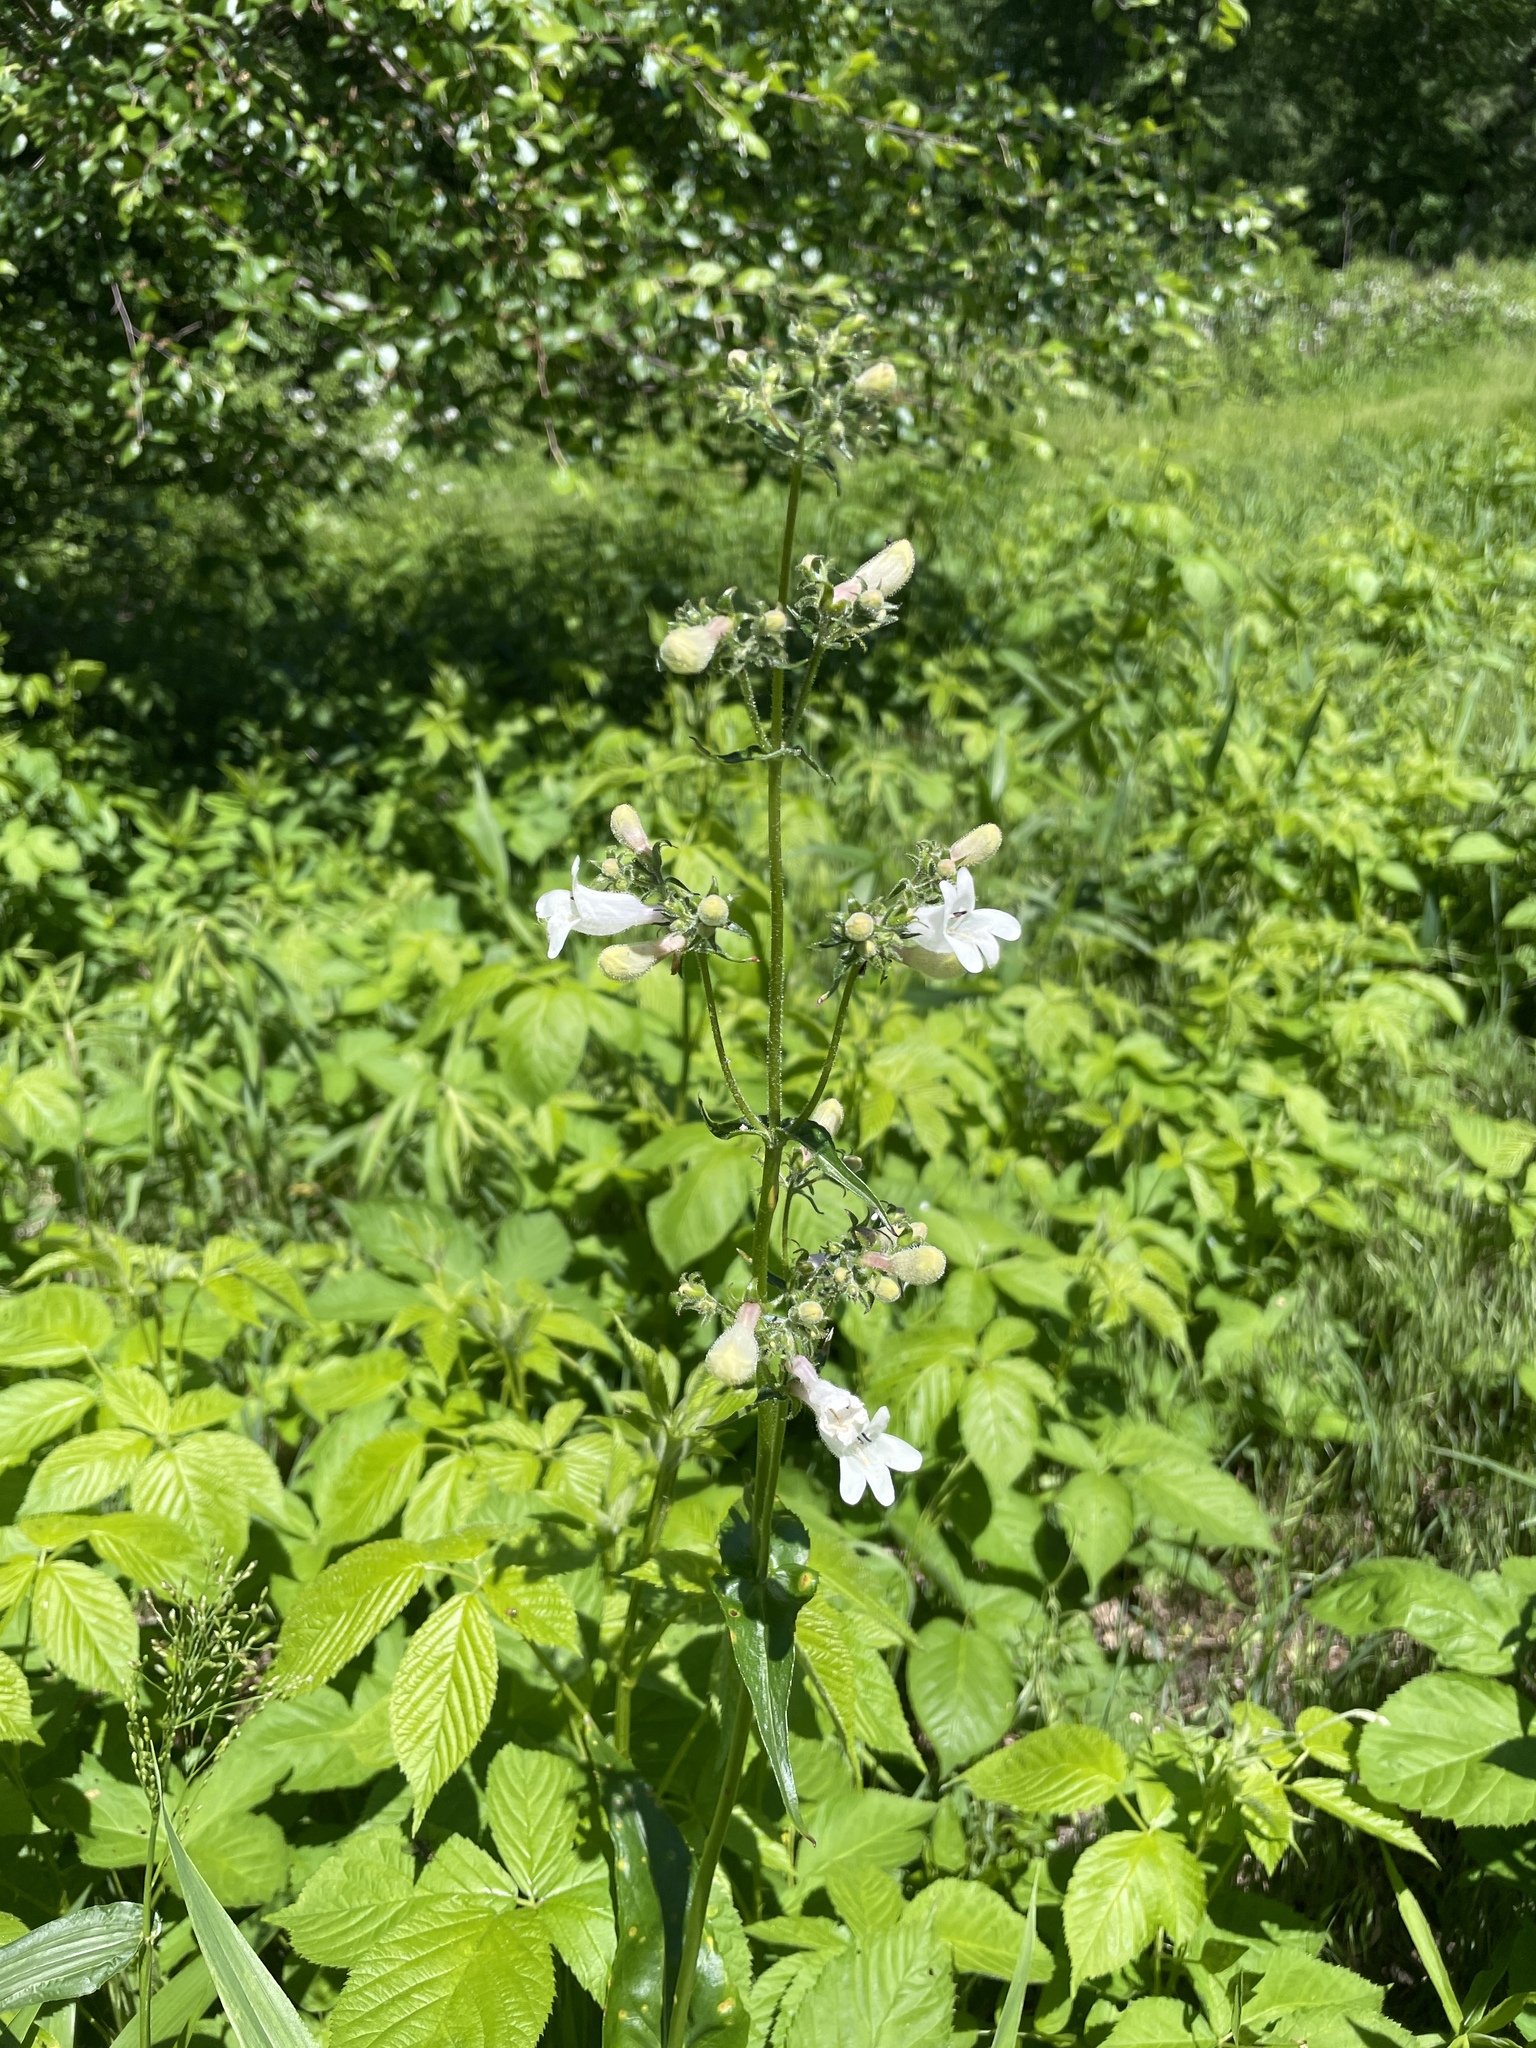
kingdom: Plantae
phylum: Tracheophyta
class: Magnoliopsida
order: Lamiales
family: Plantaginaceae
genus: Penstemon
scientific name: Penstemon digitalis
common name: Foxglove beardtongue
